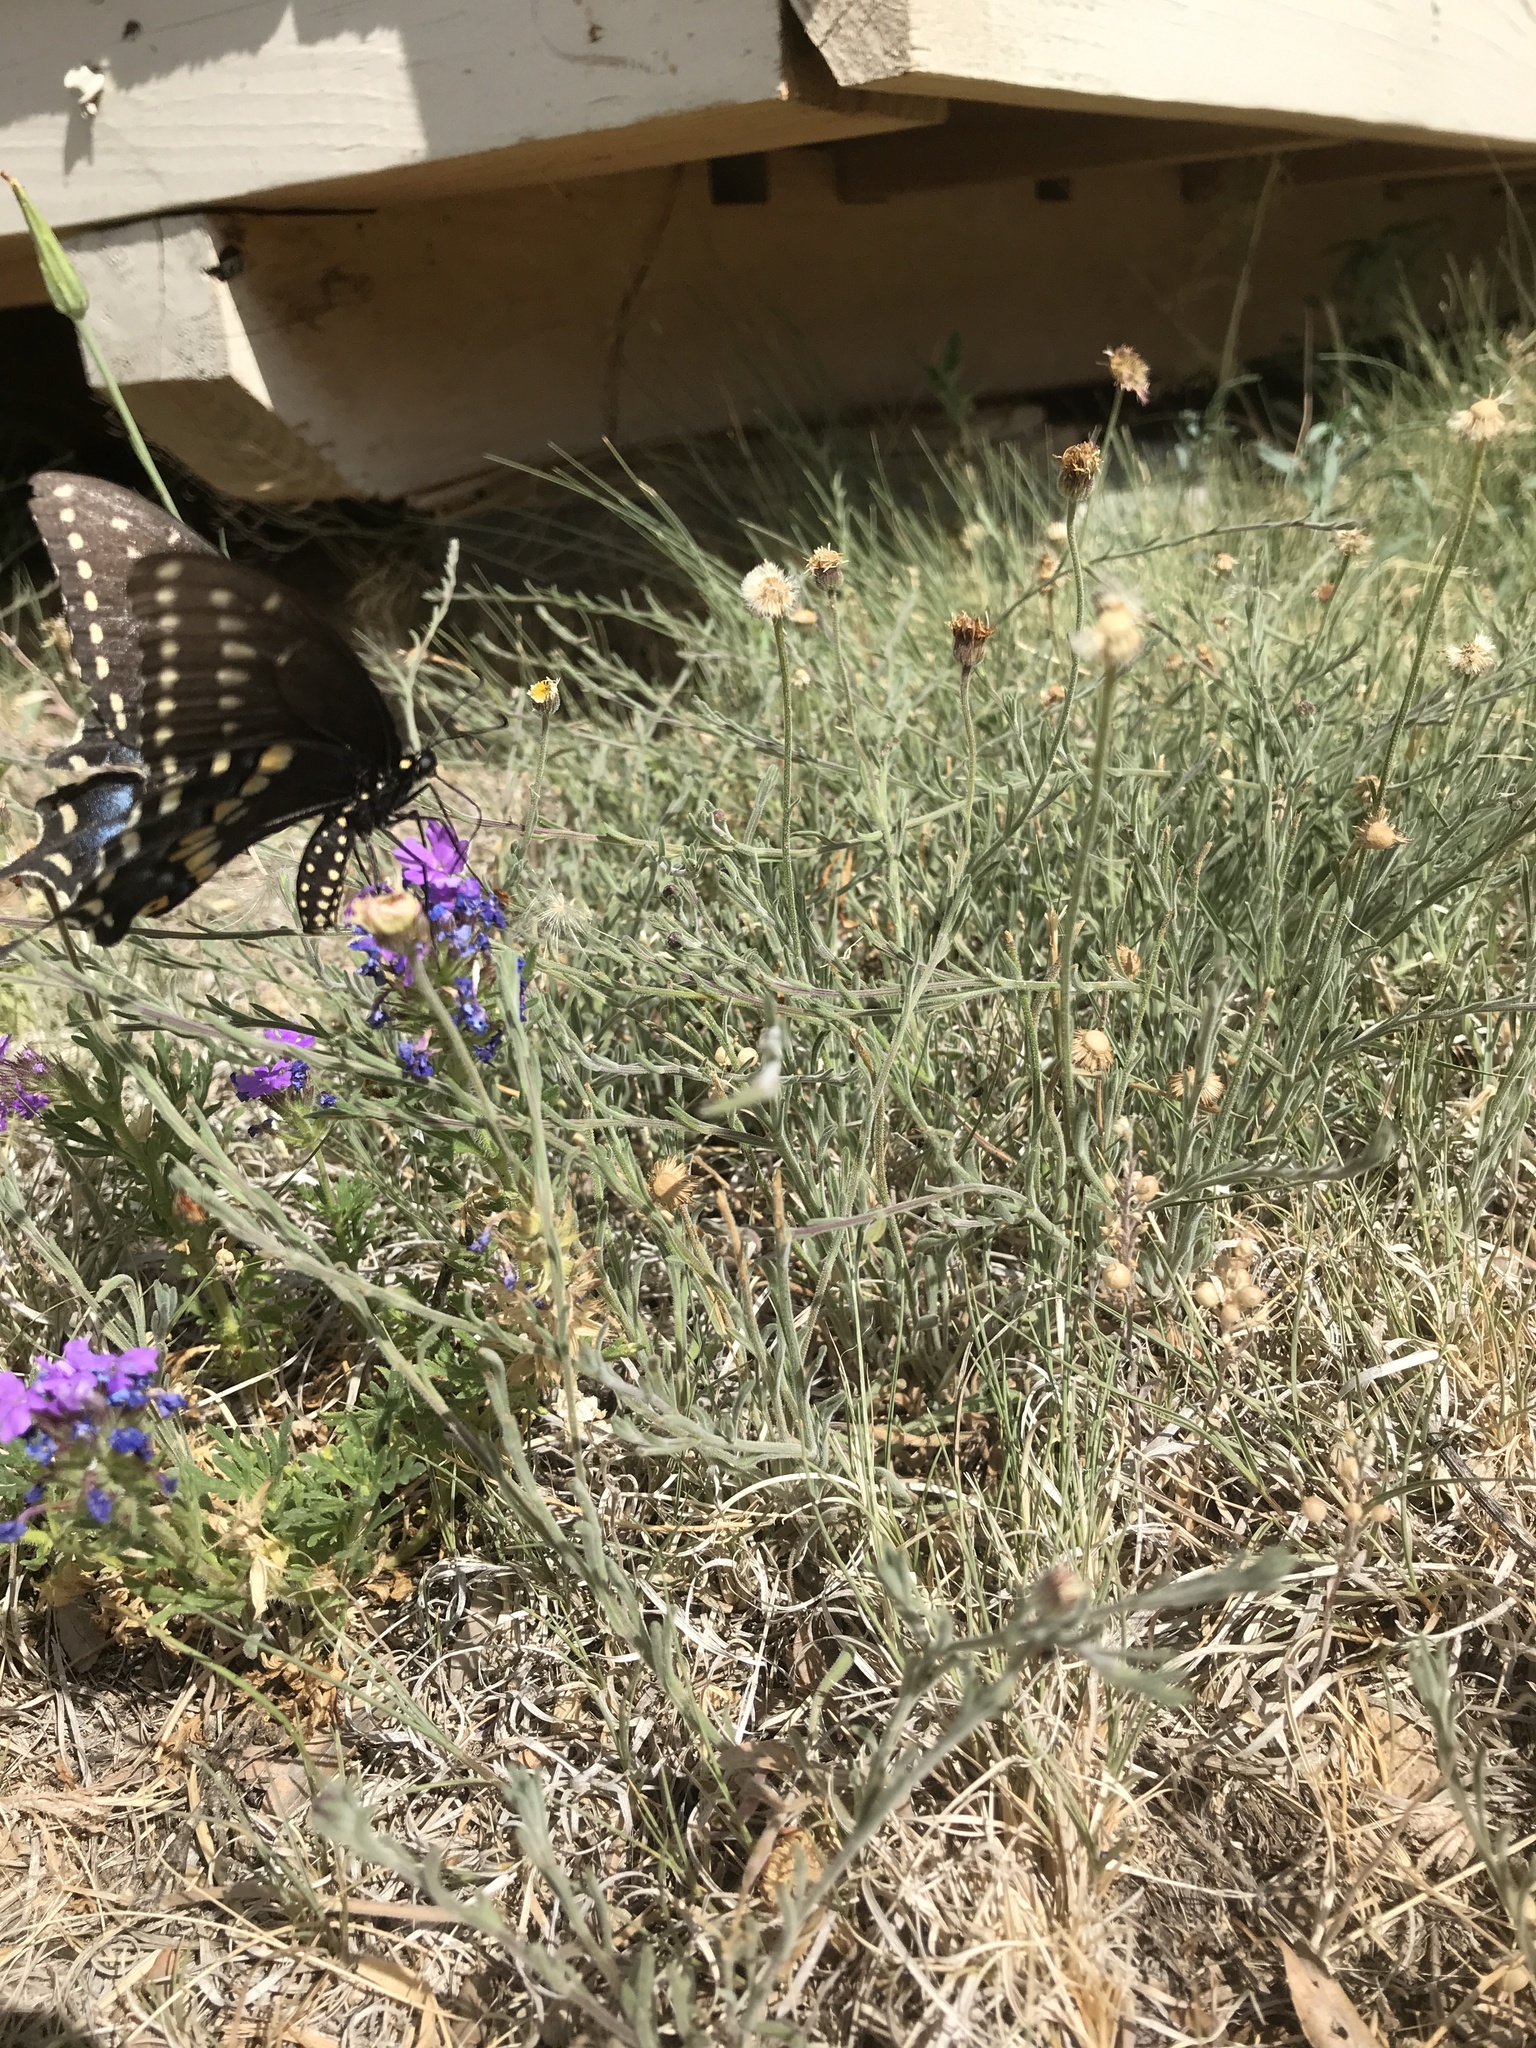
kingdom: Animalia
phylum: Arthropoda
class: Insecta
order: Lepidoptera
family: Papilionidae
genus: Papilio
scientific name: Papilio polyxenes
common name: Black swallowtail
